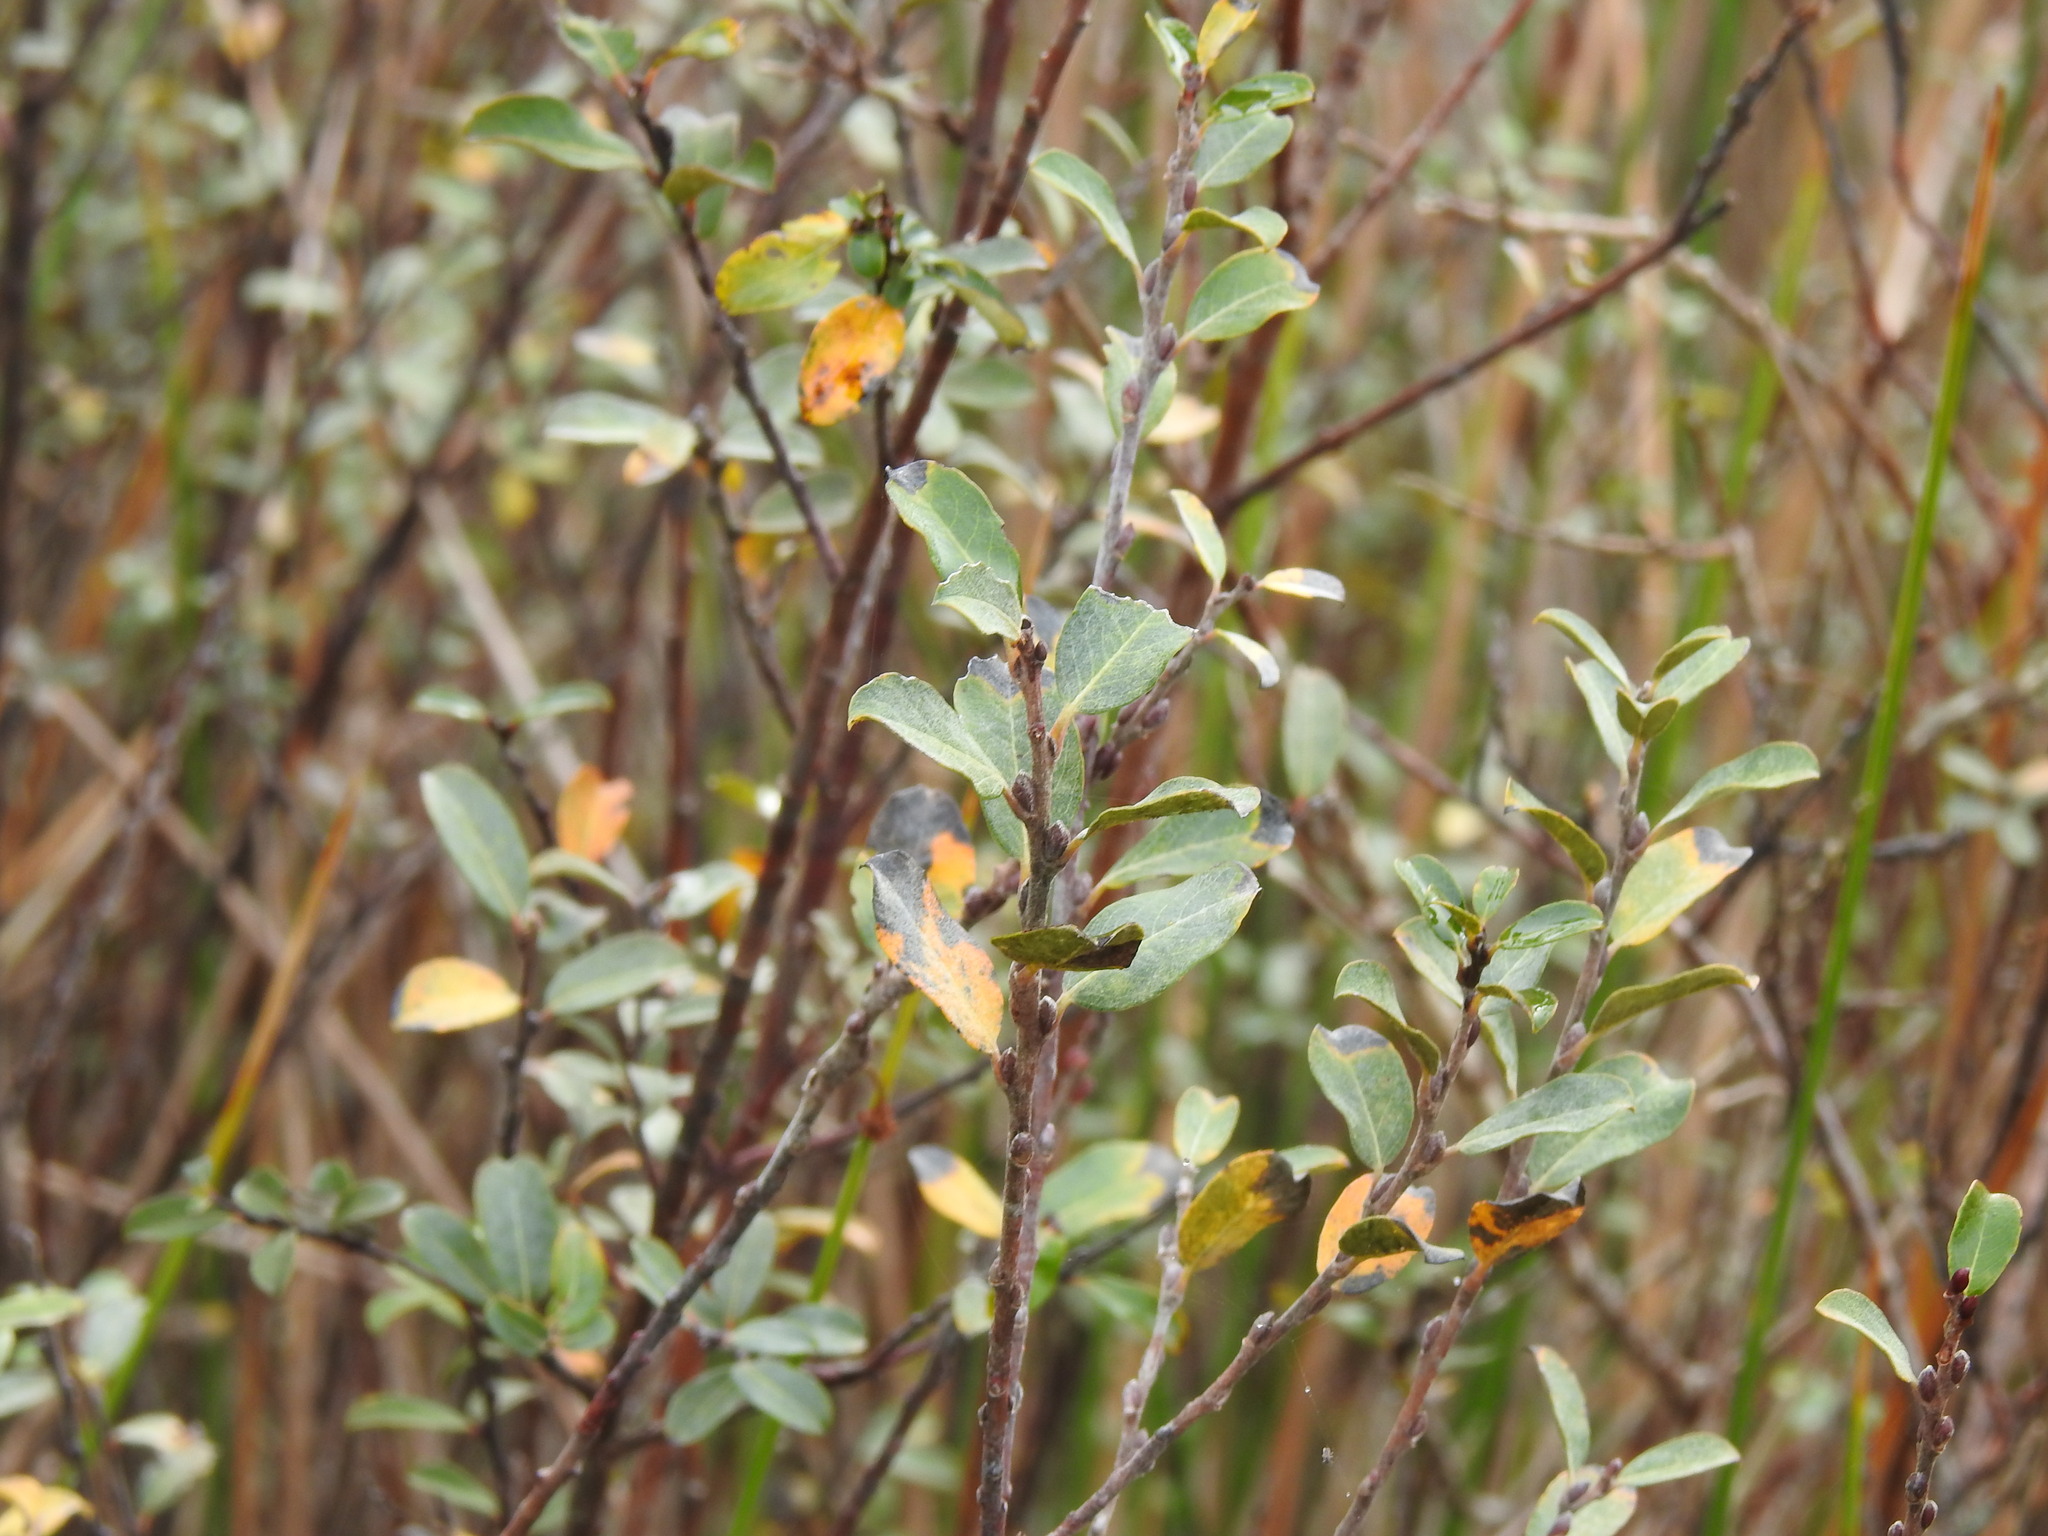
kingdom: Plantae
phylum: Tracheophyta
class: Magnoliopsida
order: Malpighiales
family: Salicaceae
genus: Salix
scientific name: Salix repens
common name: Creeping willow
